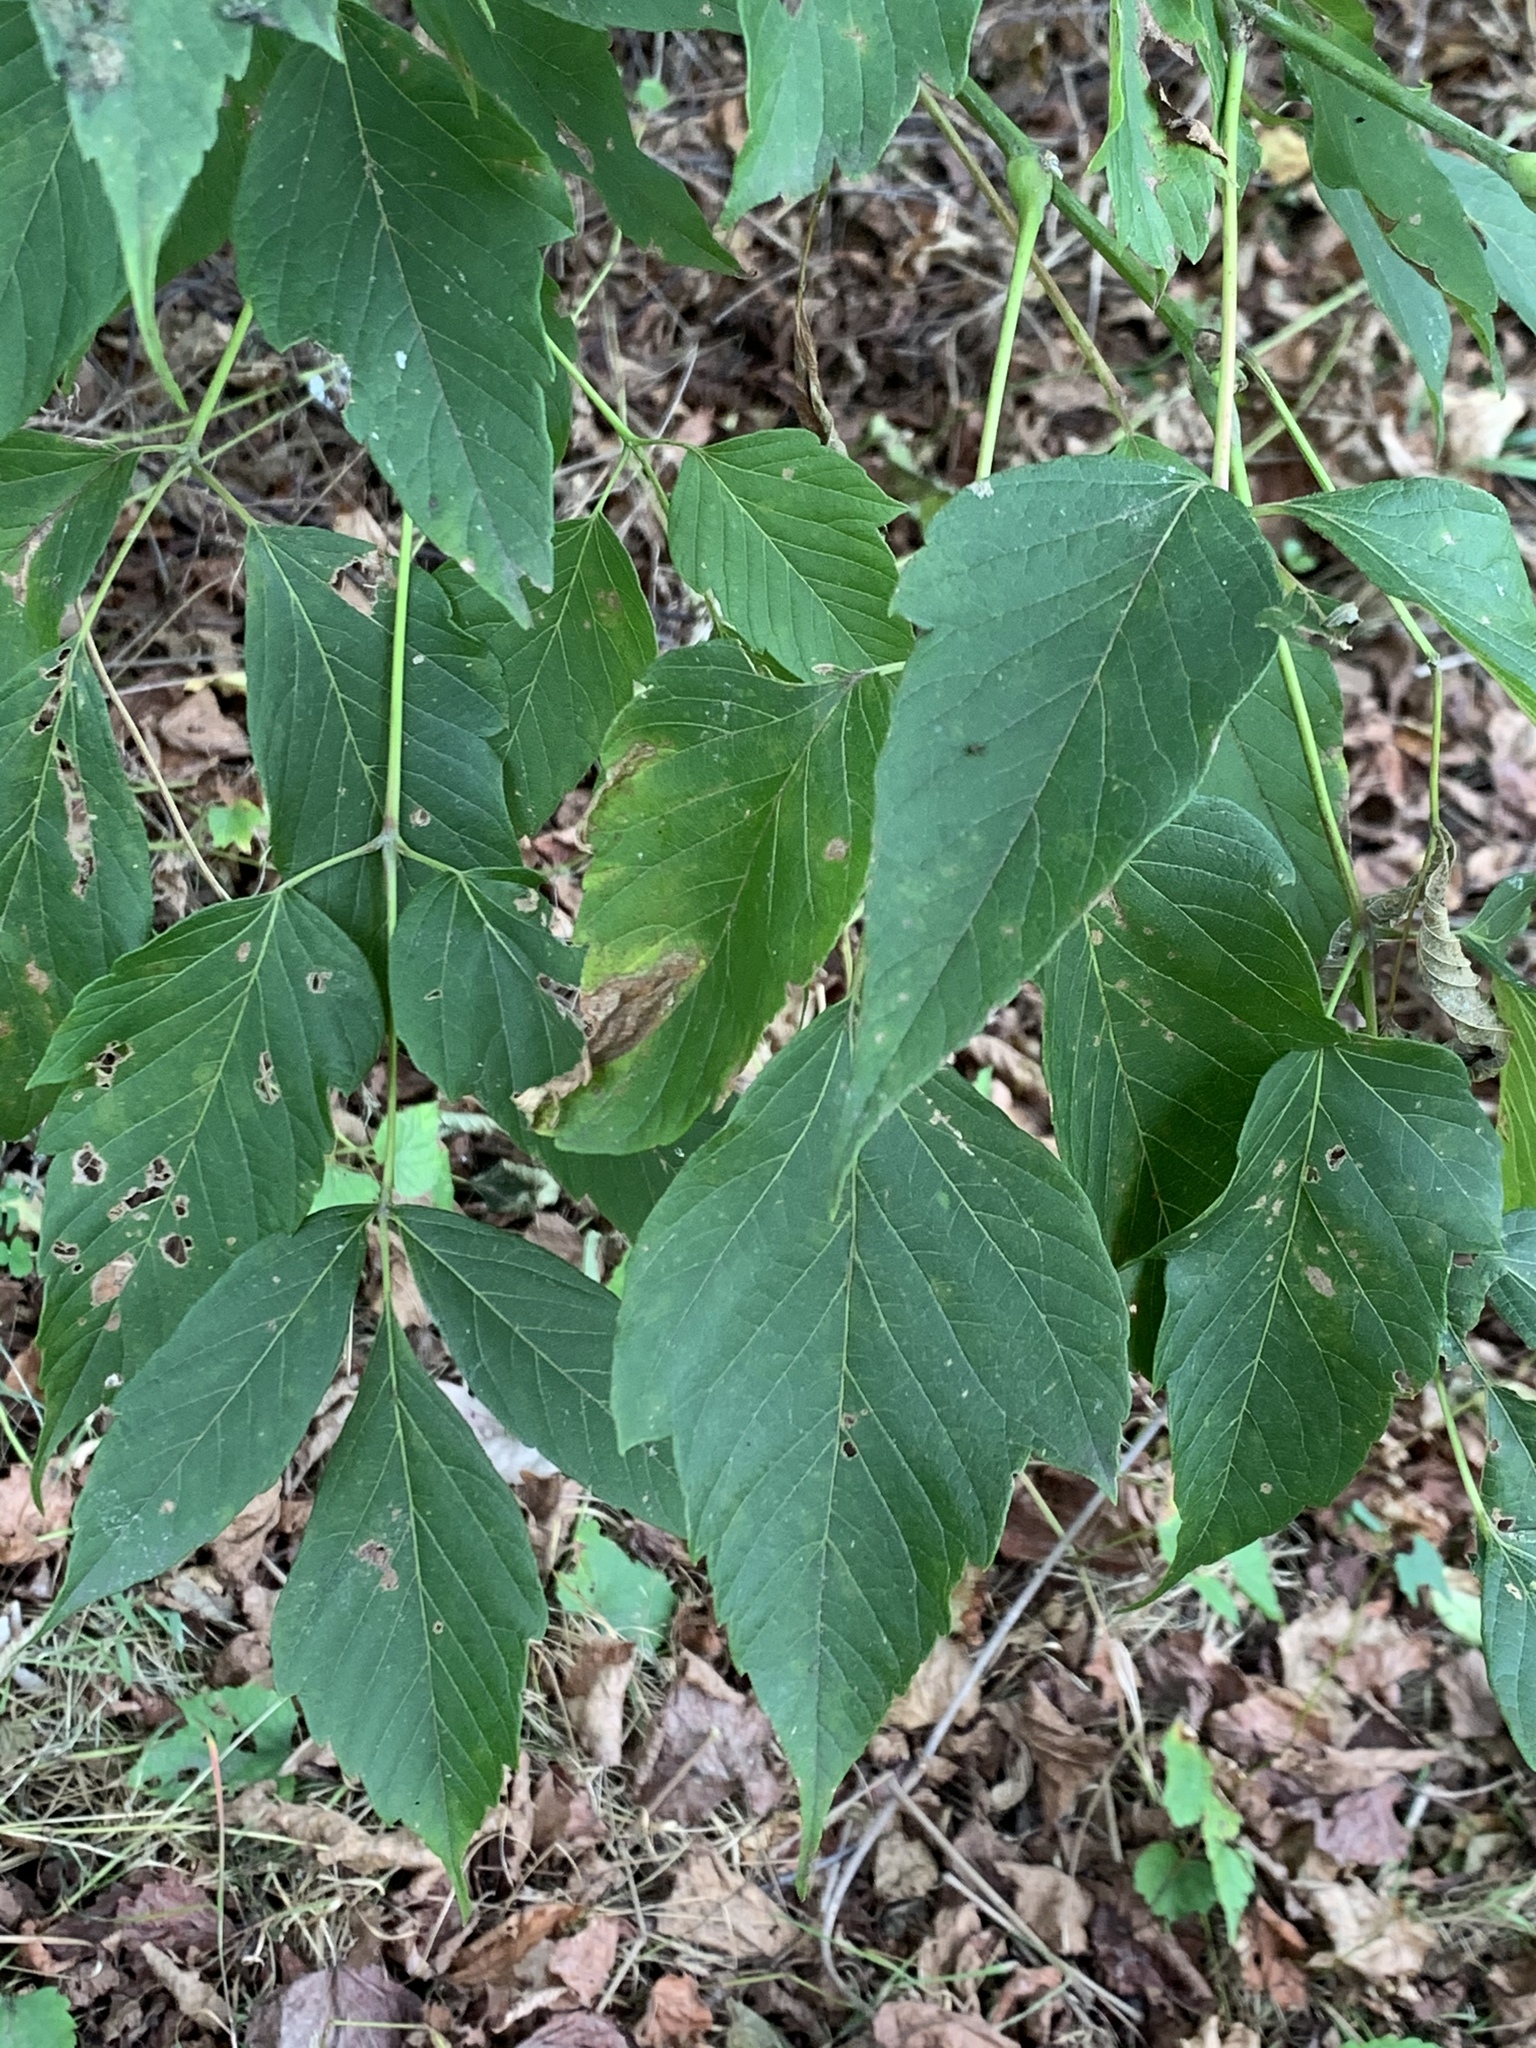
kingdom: Plantae
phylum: Tracheophyta
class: Magnoliopsida
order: Sapindales
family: Sapindaceae
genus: Acer
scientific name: Acer negundo
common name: Ashleaf maple
